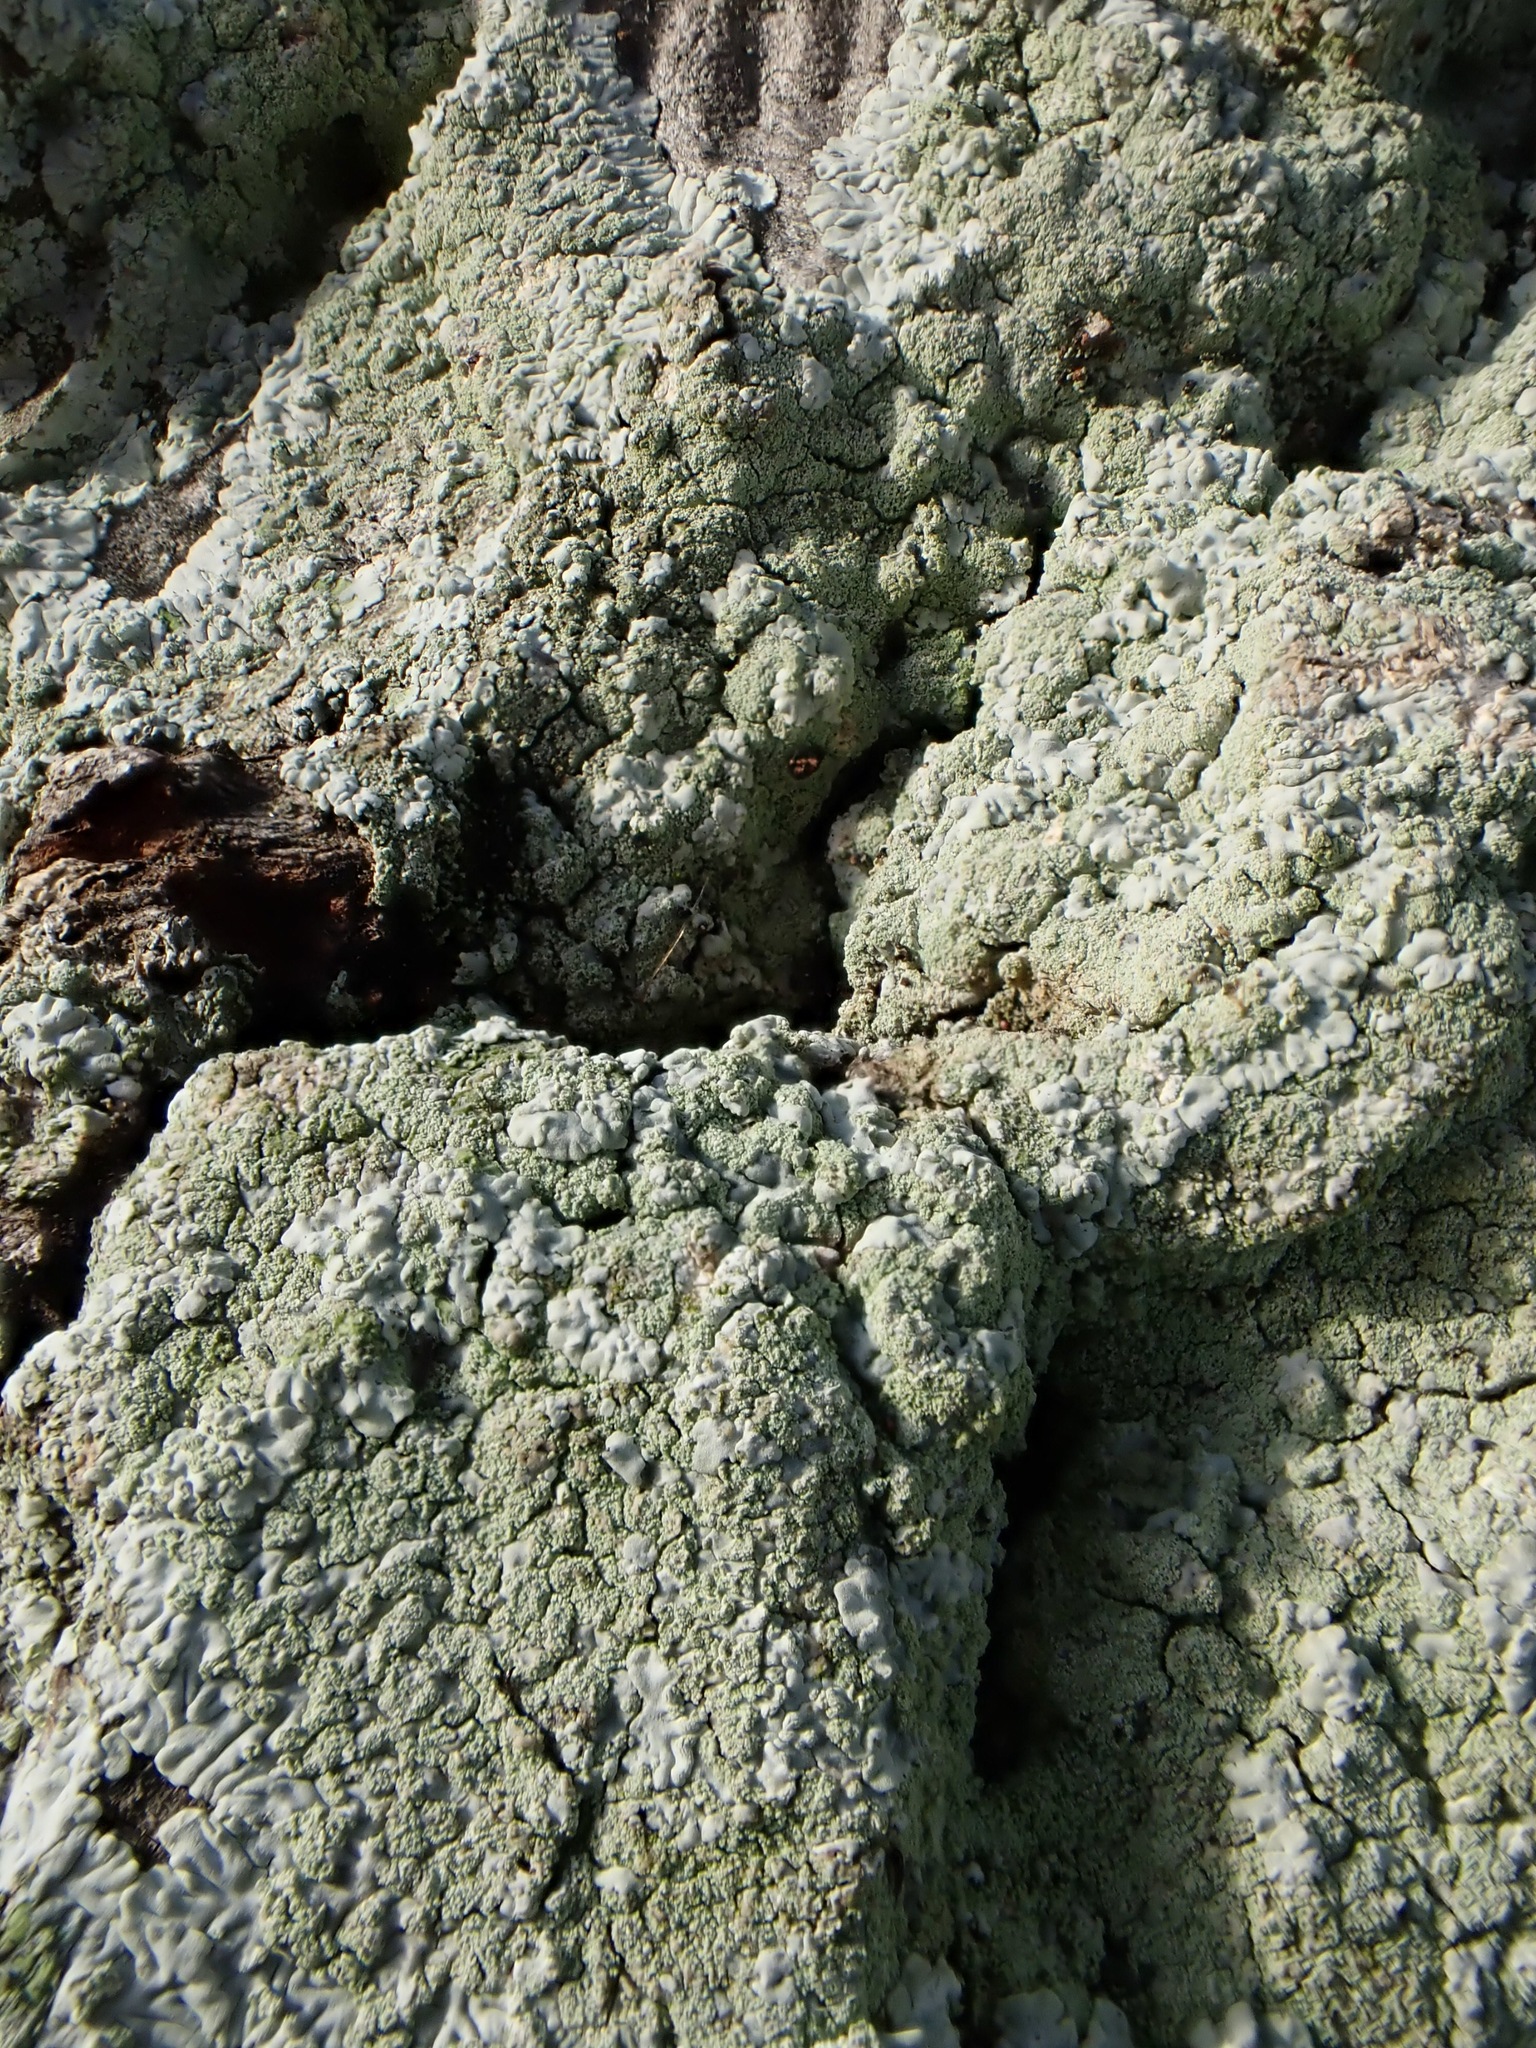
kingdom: Fungi
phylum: Ascomycota
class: Lecanoromycetes
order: Caliciales
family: Caliciaceae
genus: Diploicia
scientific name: Diploicia canescens
